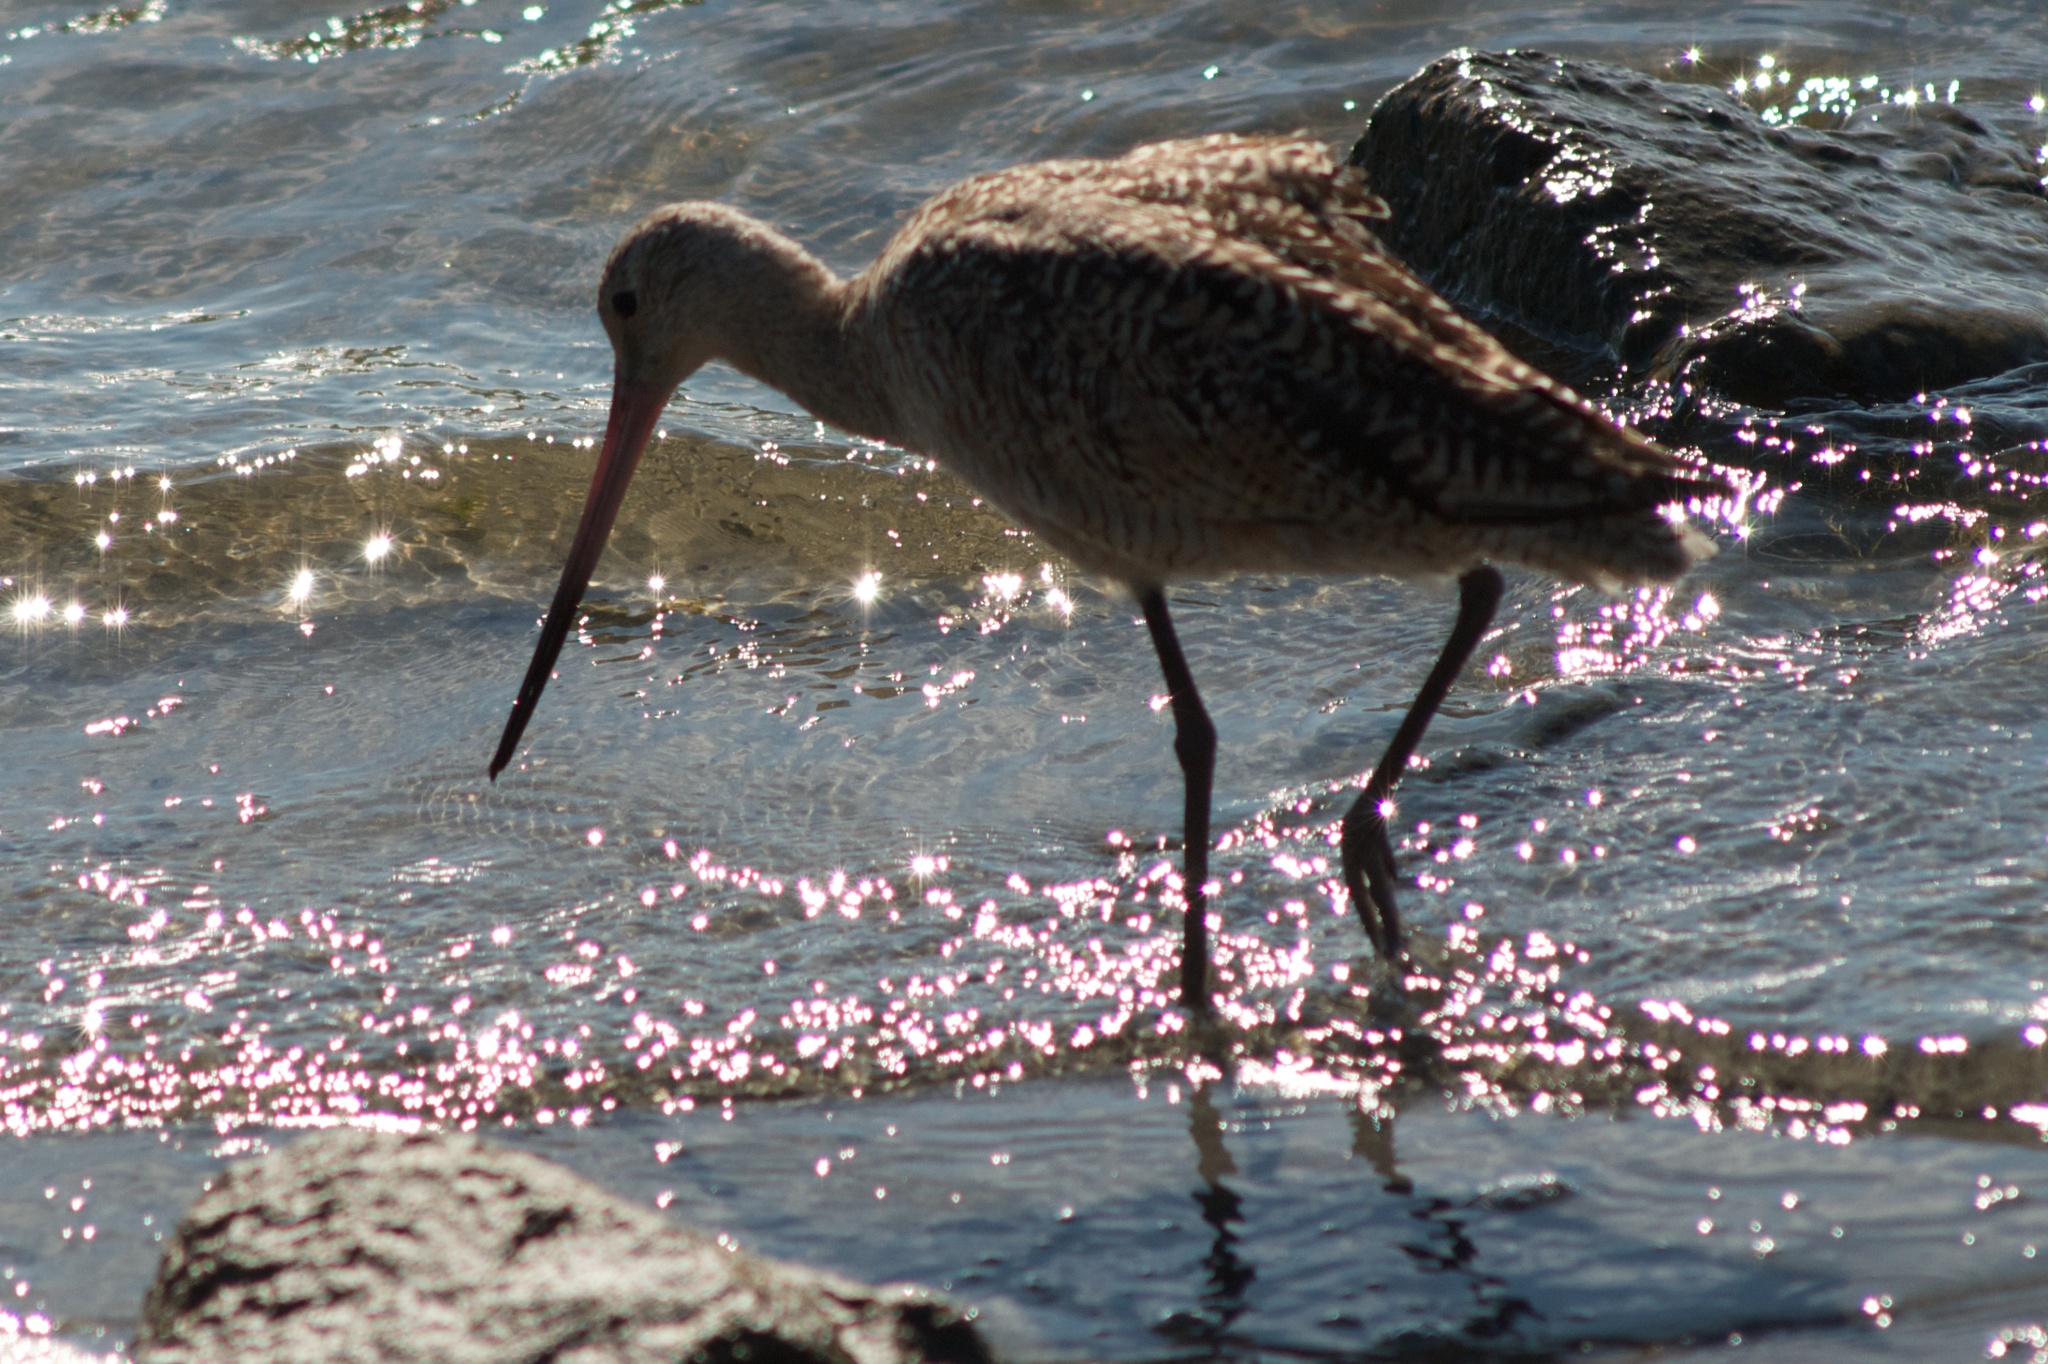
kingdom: Animalia
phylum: Chordata
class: Aves
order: Charadriiformes
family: Scolopacidae
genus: Limosa
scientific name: Limosa fedoa
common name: Marbled godwit
